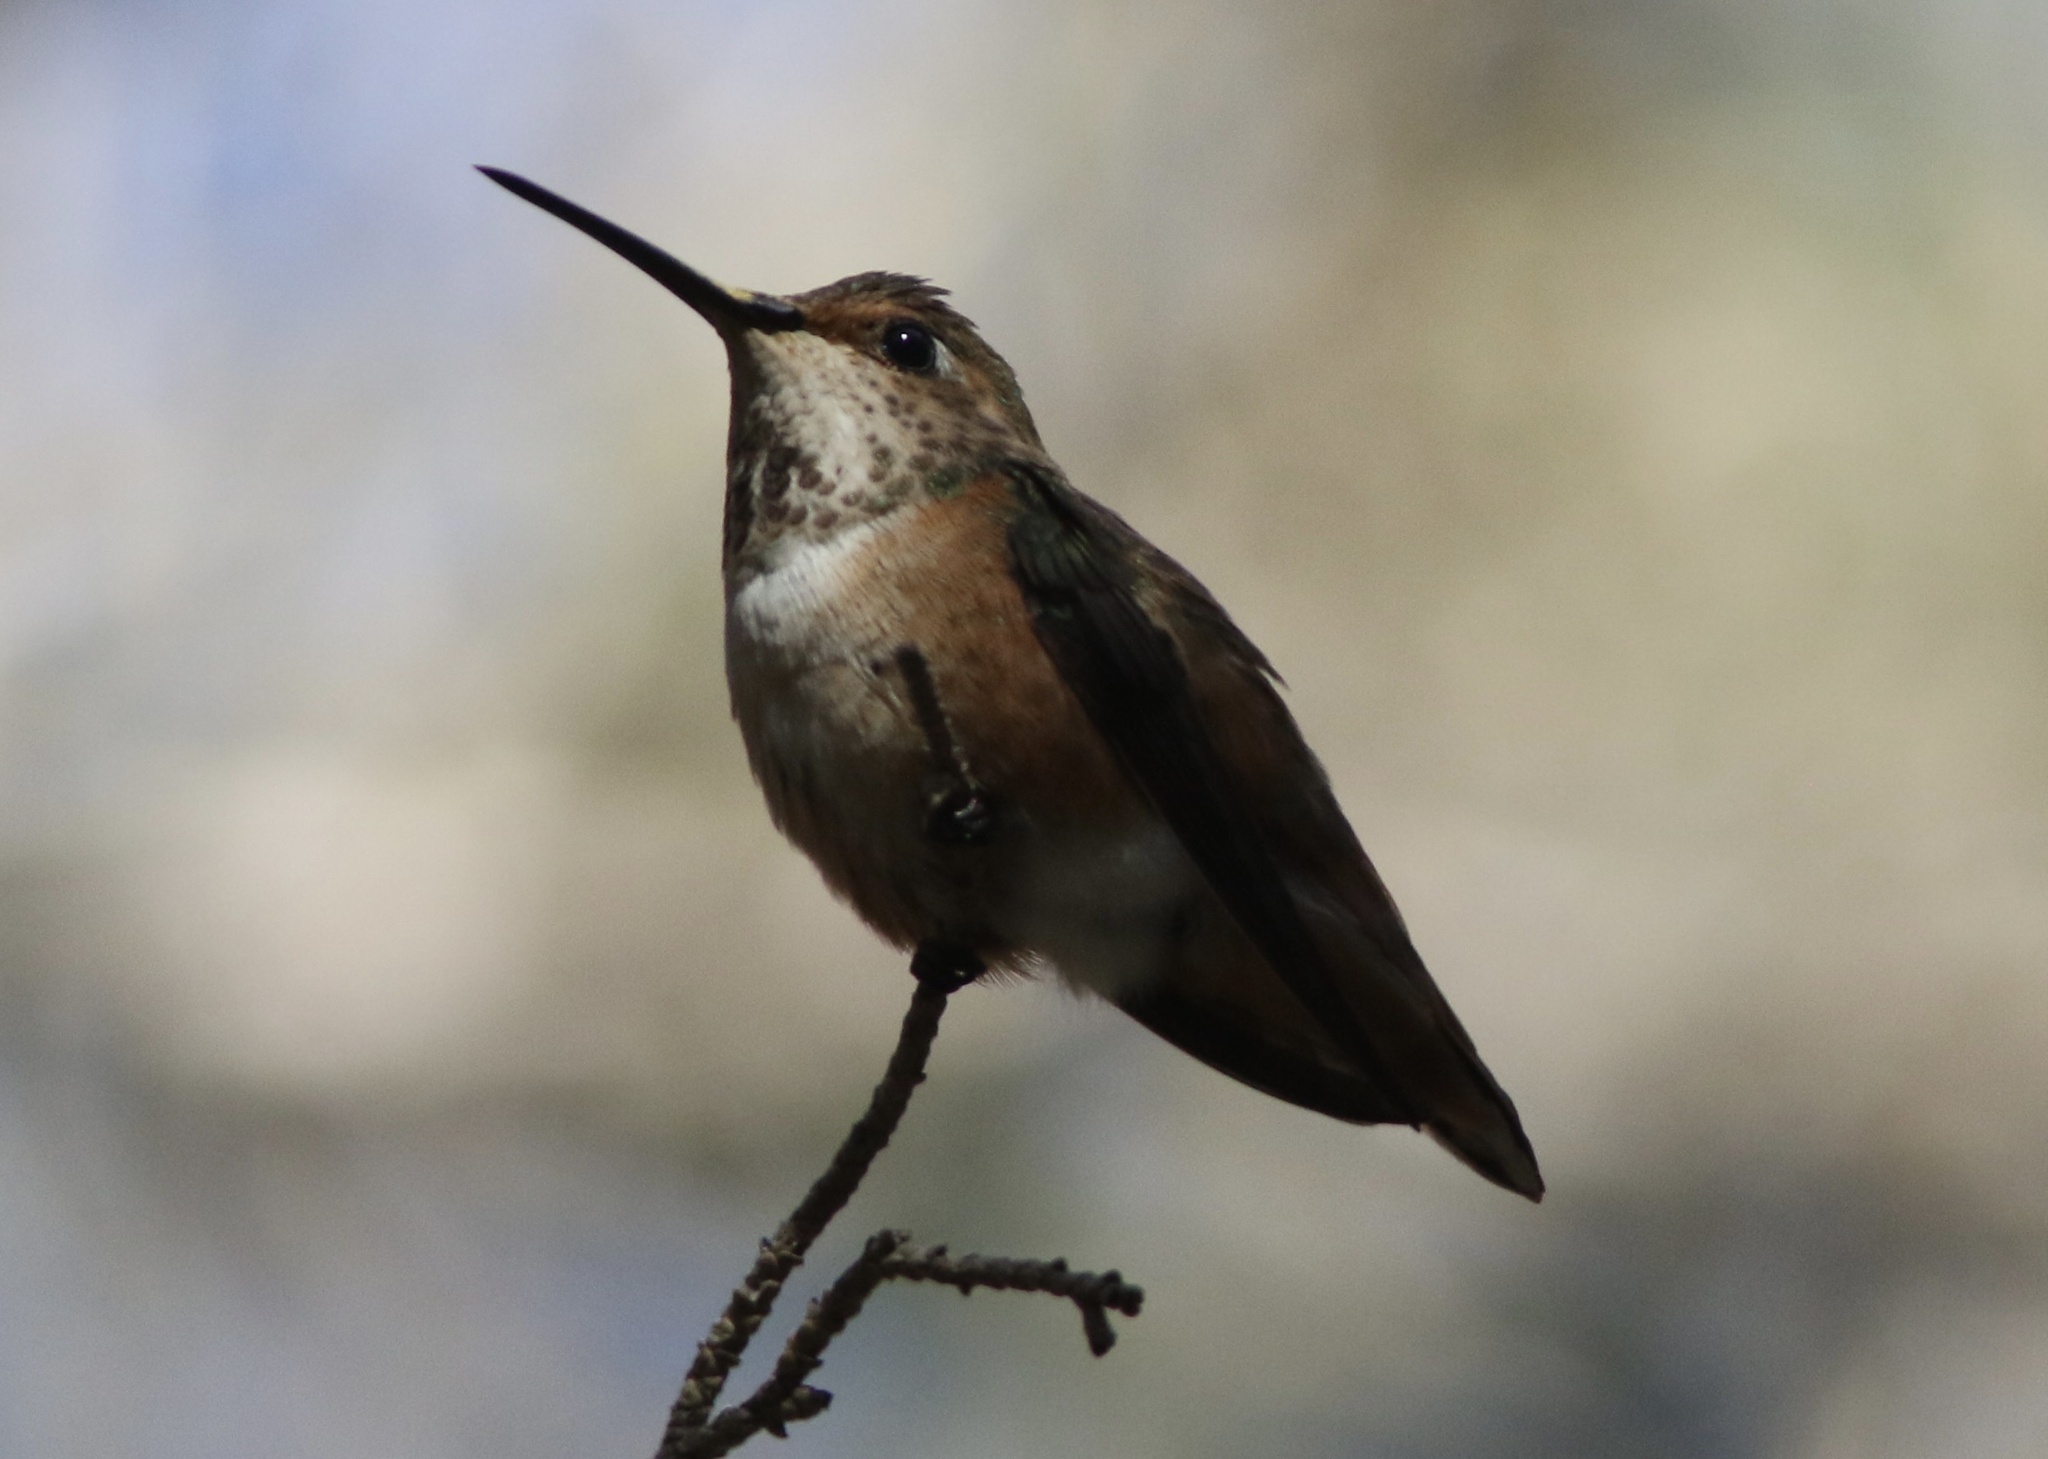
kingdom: Animalia
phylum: Chordata
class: Aves
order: Apodiformes
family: Trochilidae
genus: Selasphorus
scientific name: Selasphorus sasin
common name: Allen's hummingbird
